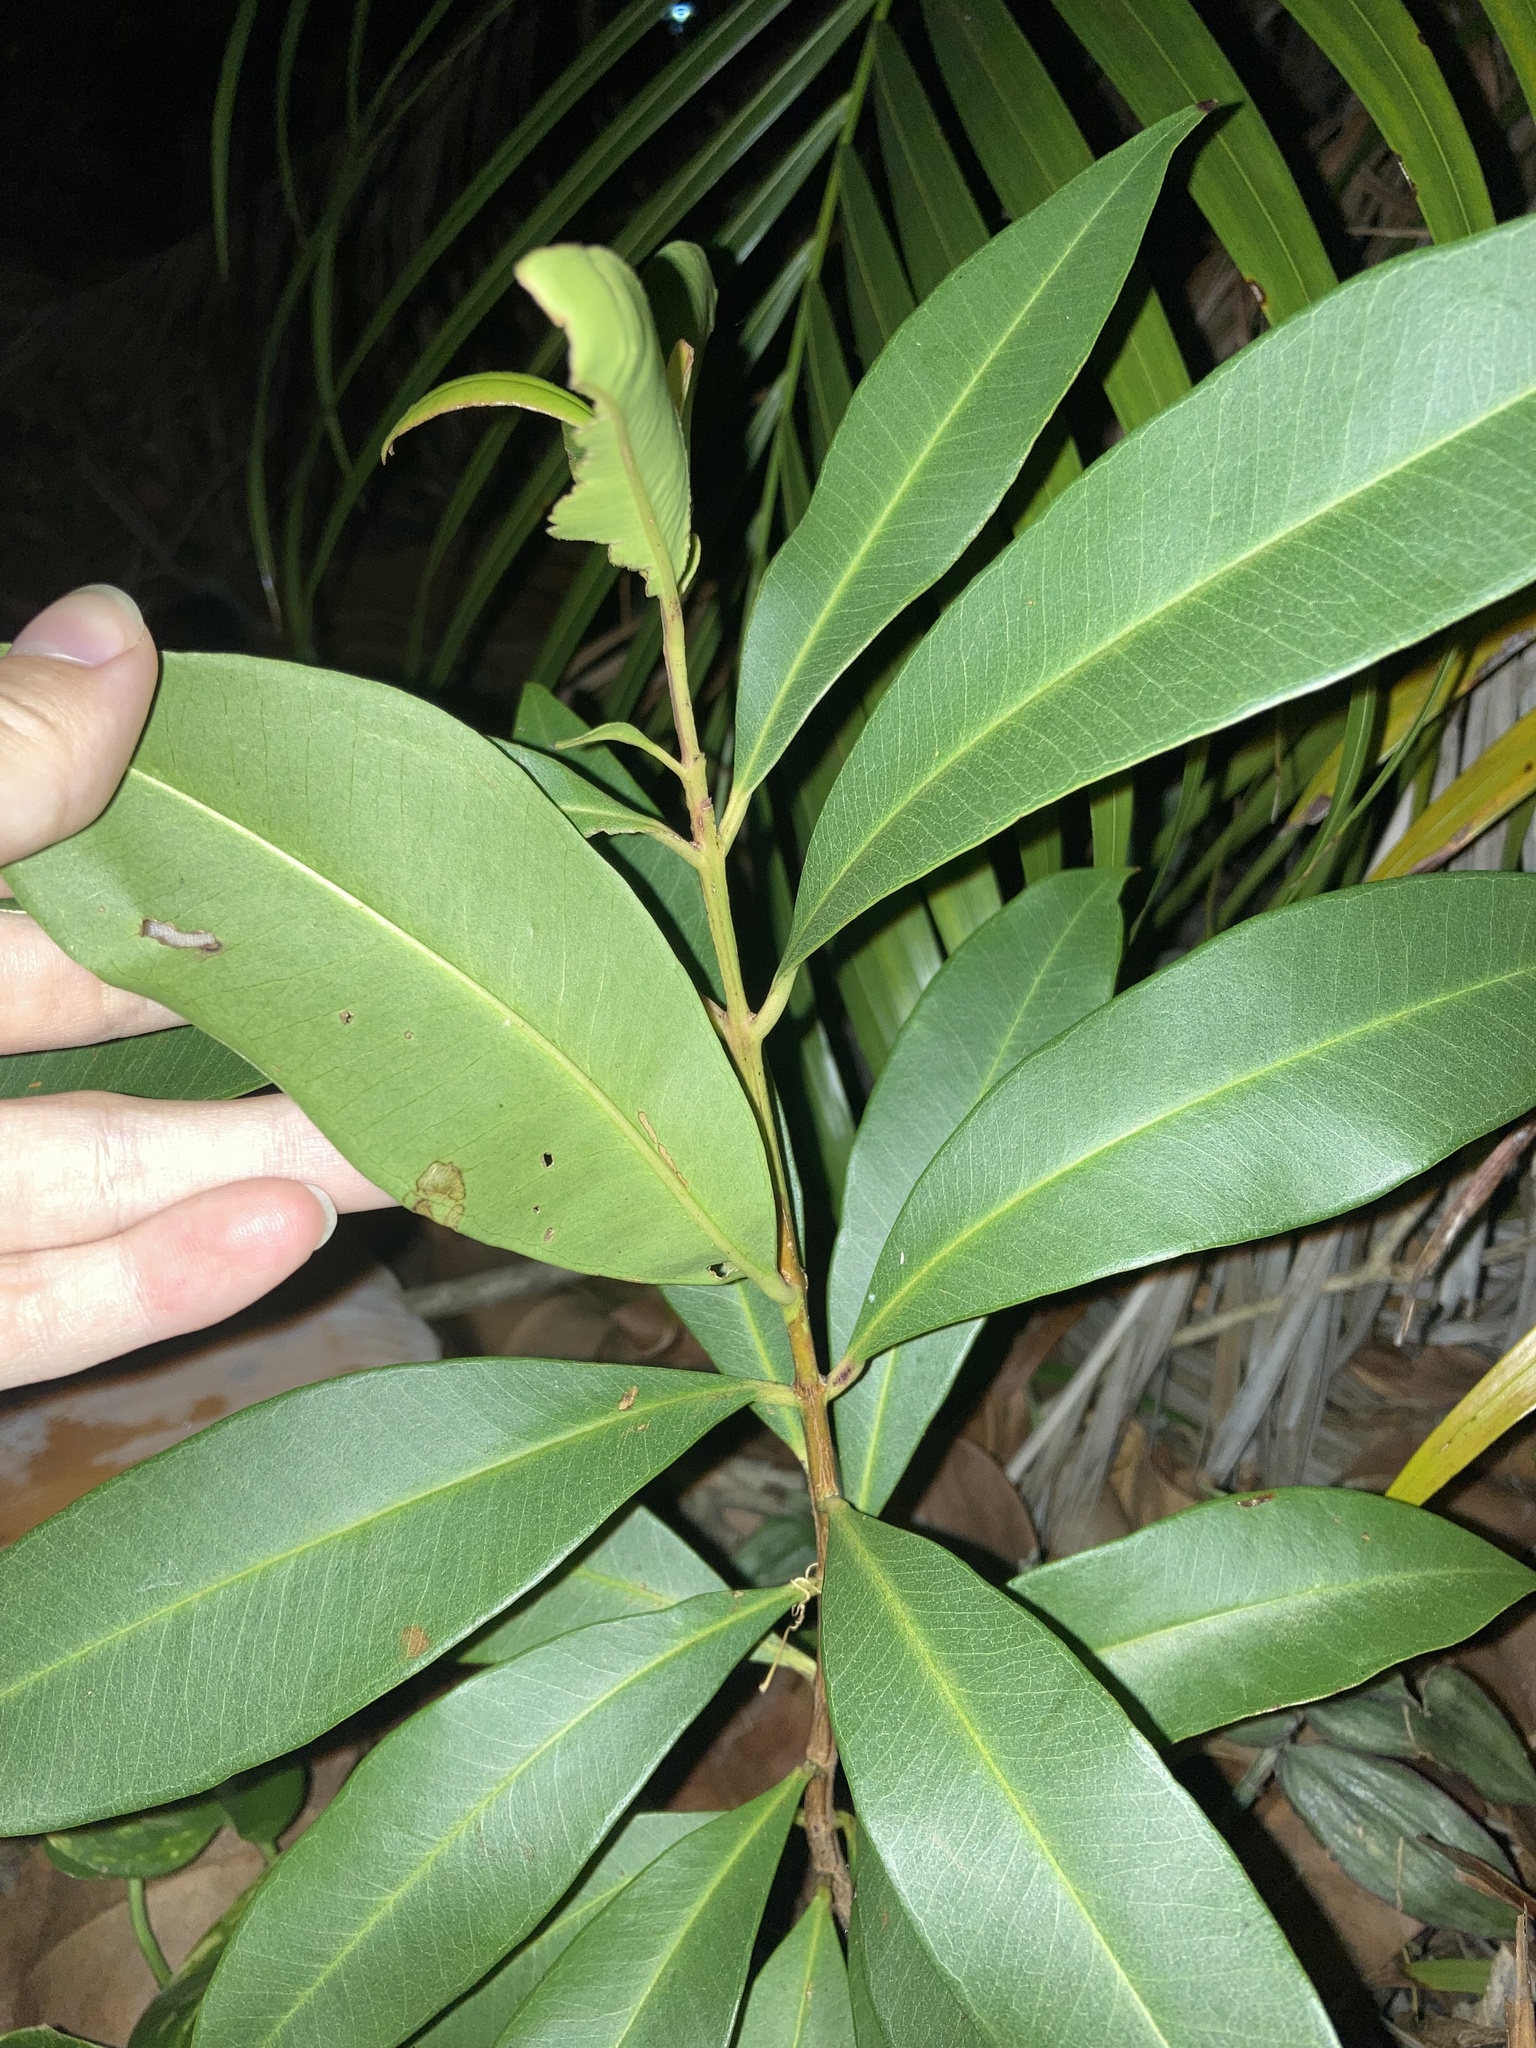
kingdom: Plantae
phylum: Tracheophyta
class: Magnoliopsida
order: Ericales
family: Primulaceae
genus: Ardisia
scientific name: Ardisia elliptica
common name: Shoebutton
